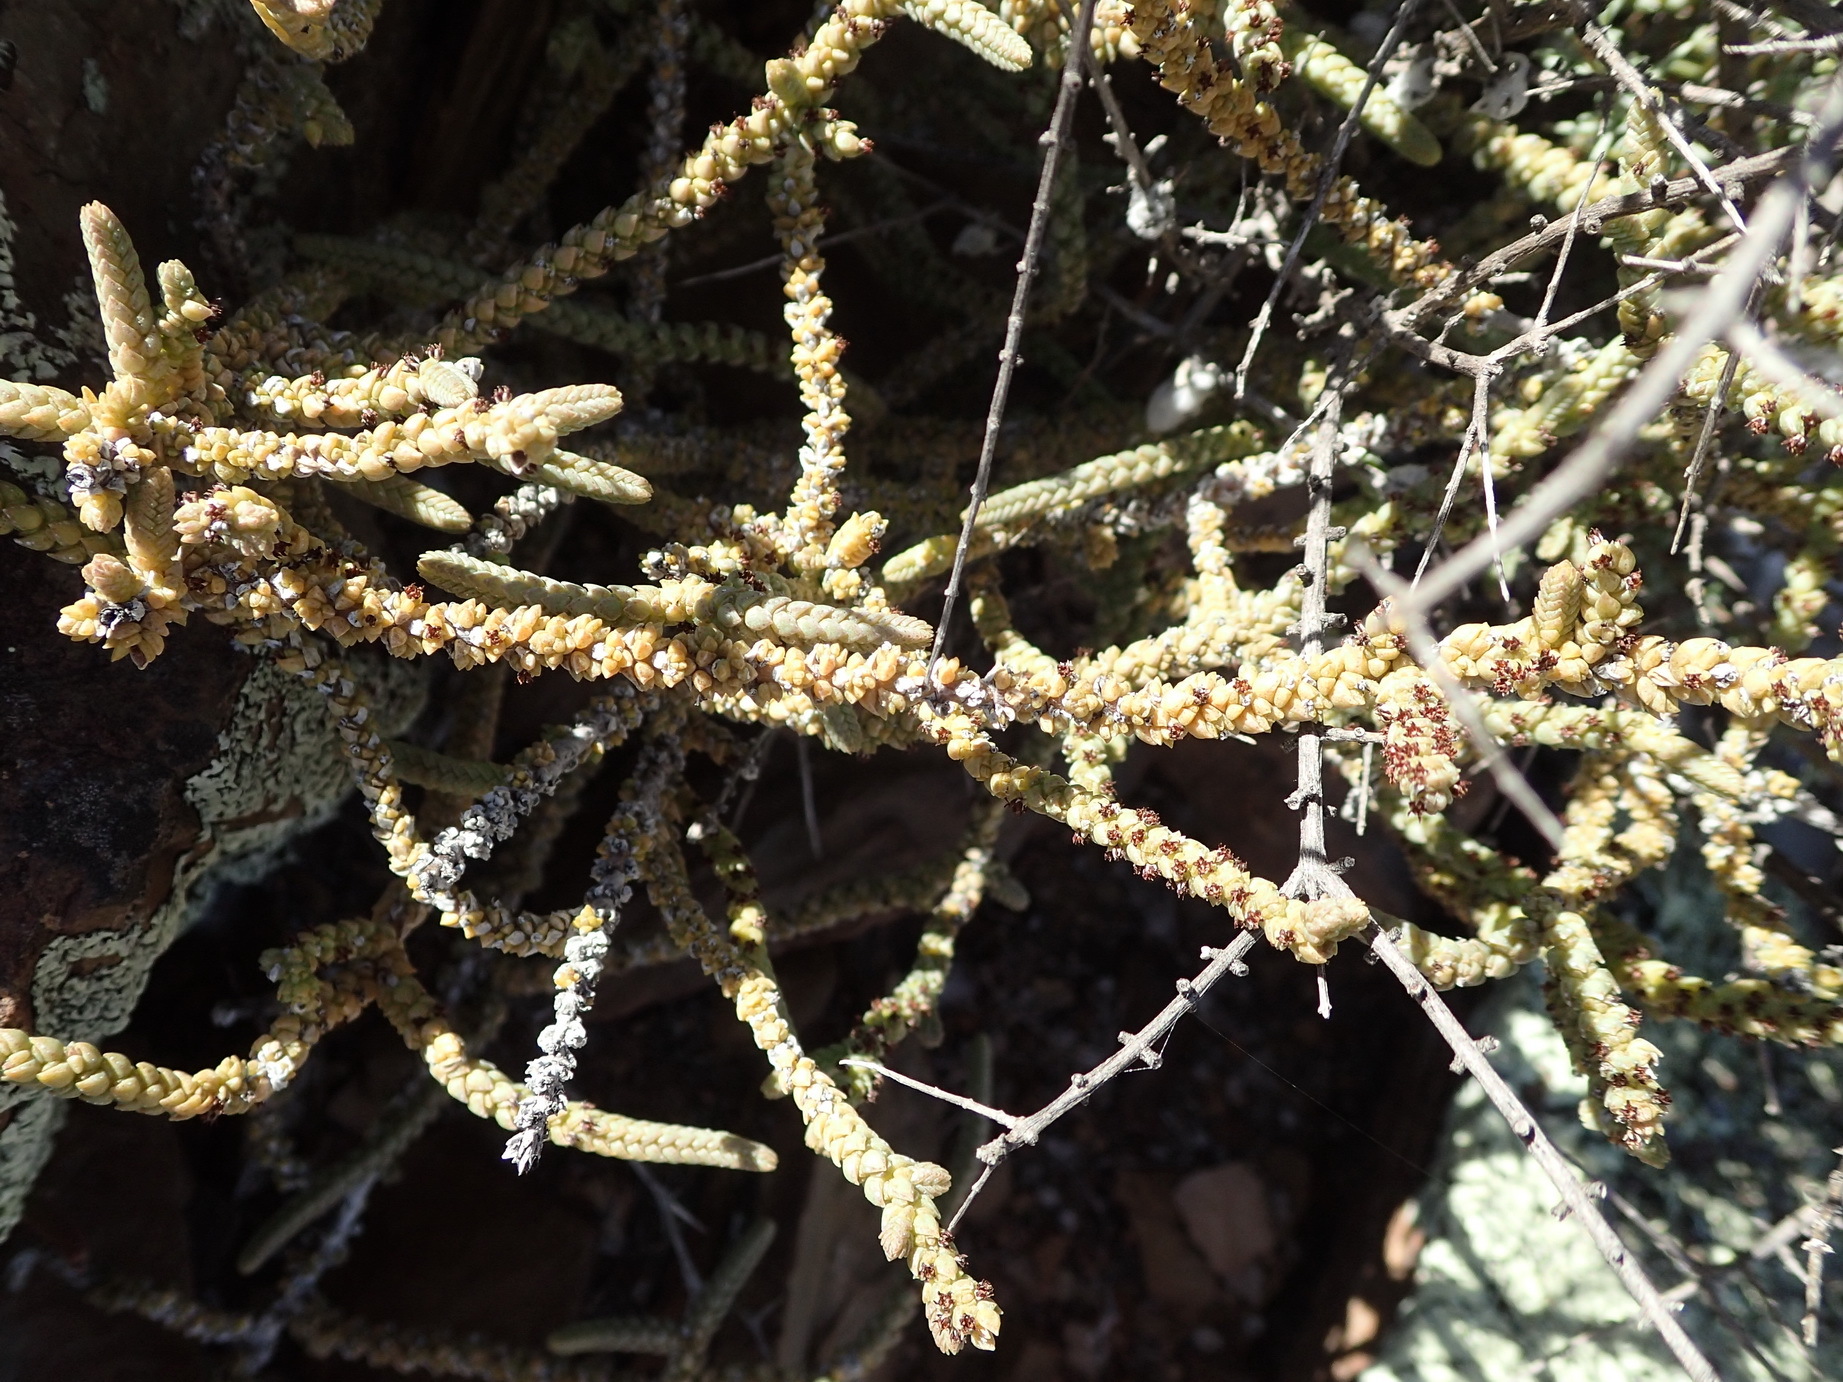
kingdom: Plantae
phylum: Tracheophyta
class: Magnoliopsida
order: Saxifragales
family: Crassulaceae
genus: Crassula
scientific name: Crassula muscosa
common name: Toy-cypress
